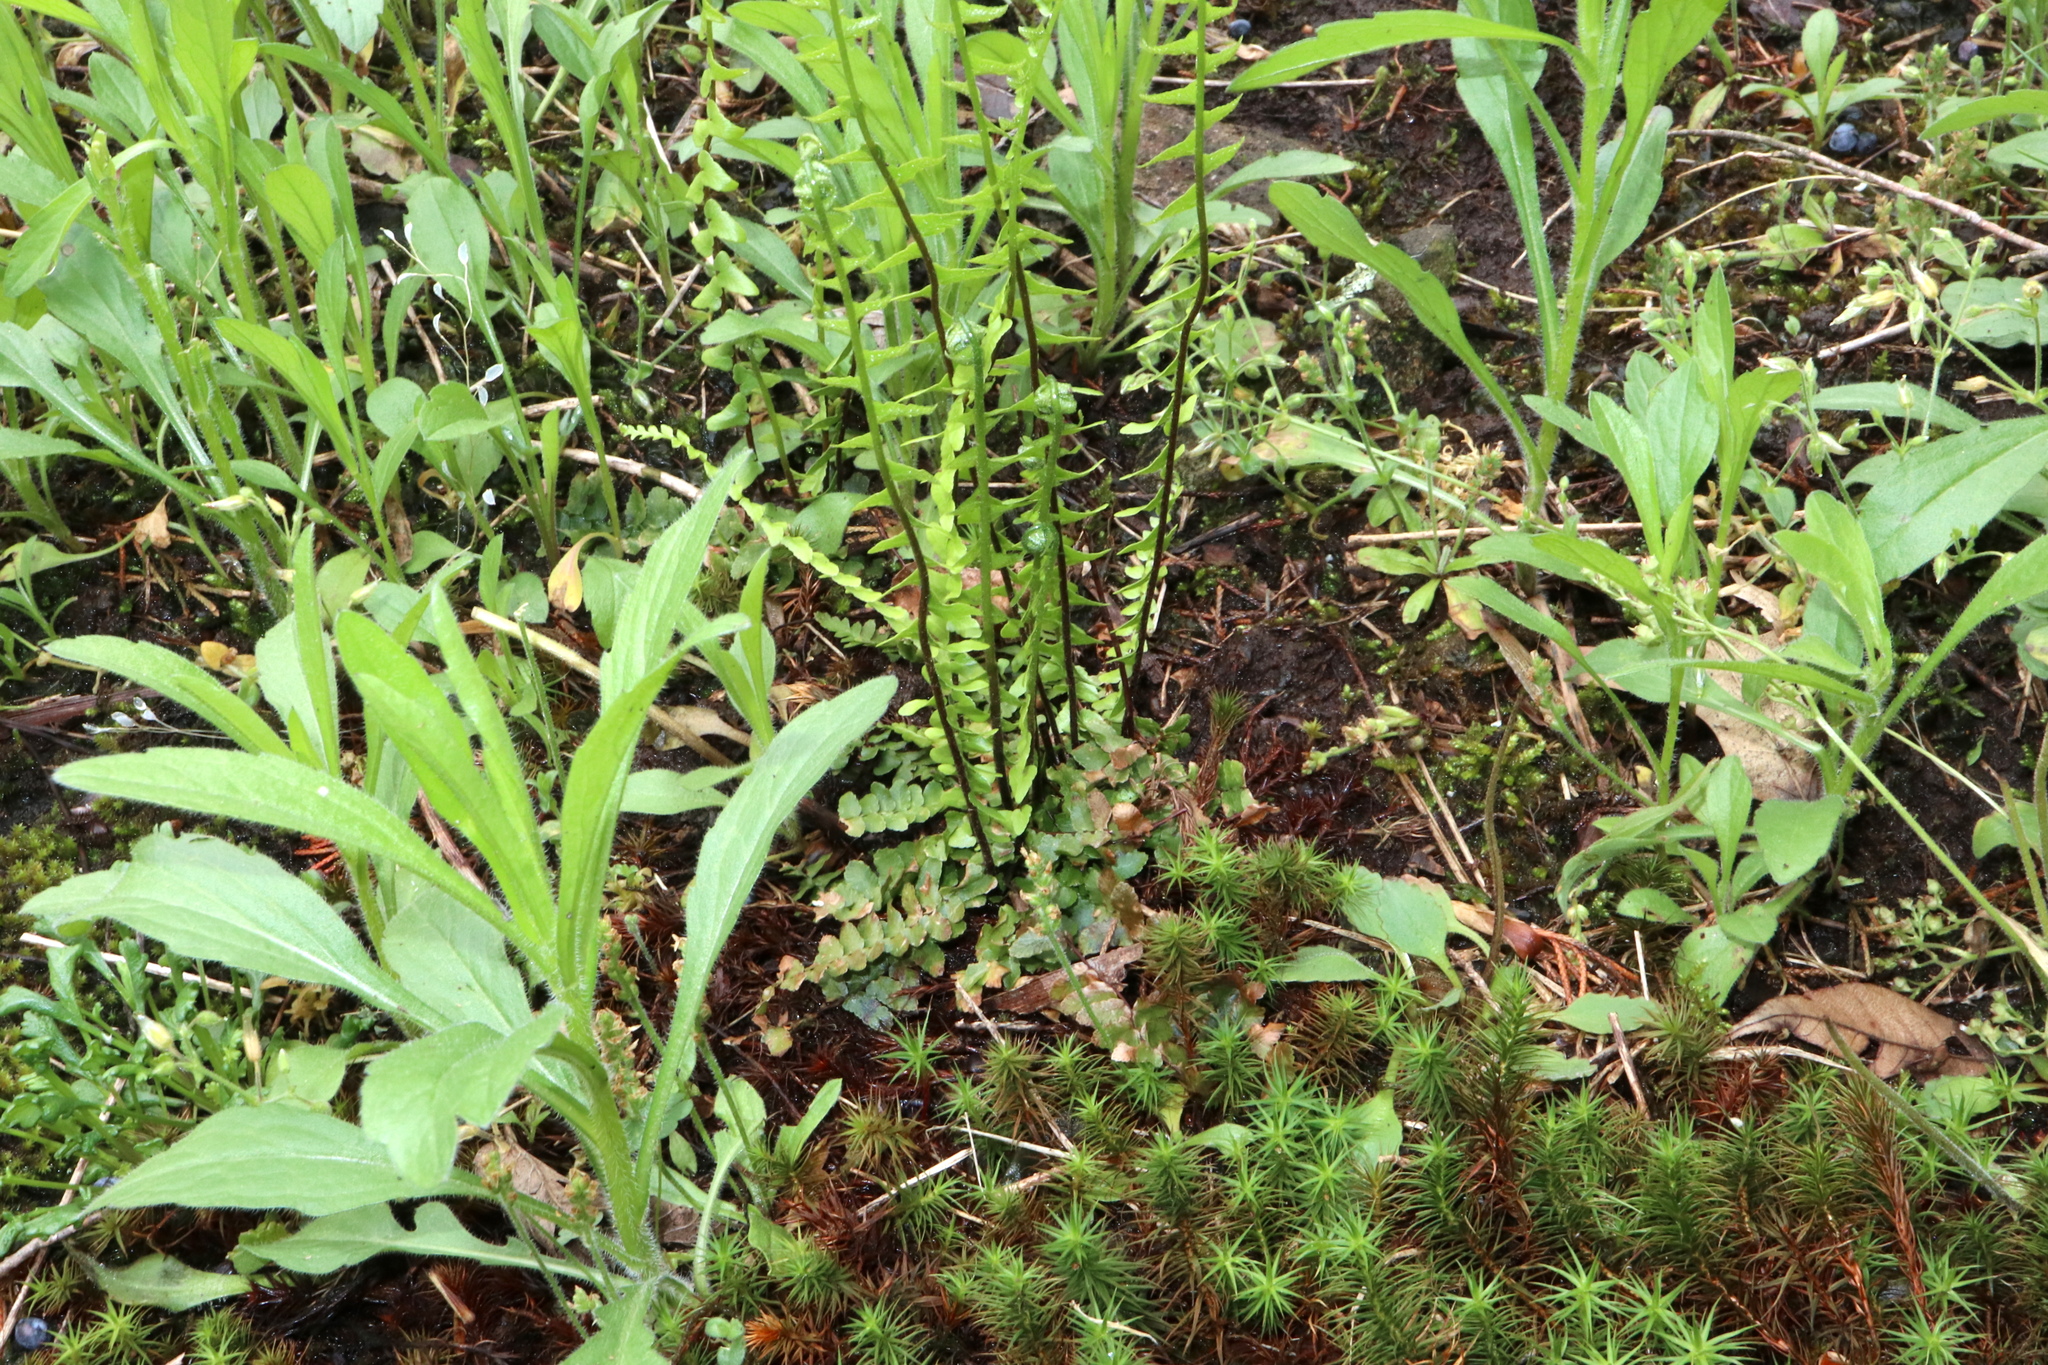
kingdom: Plantae
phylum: Tracheophyta
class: Polypodiopsida
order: Polypodiales
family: Aspleniaceae
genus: Asplenium
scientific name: Asplenium platyneuron
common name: Ebony spleenwort
